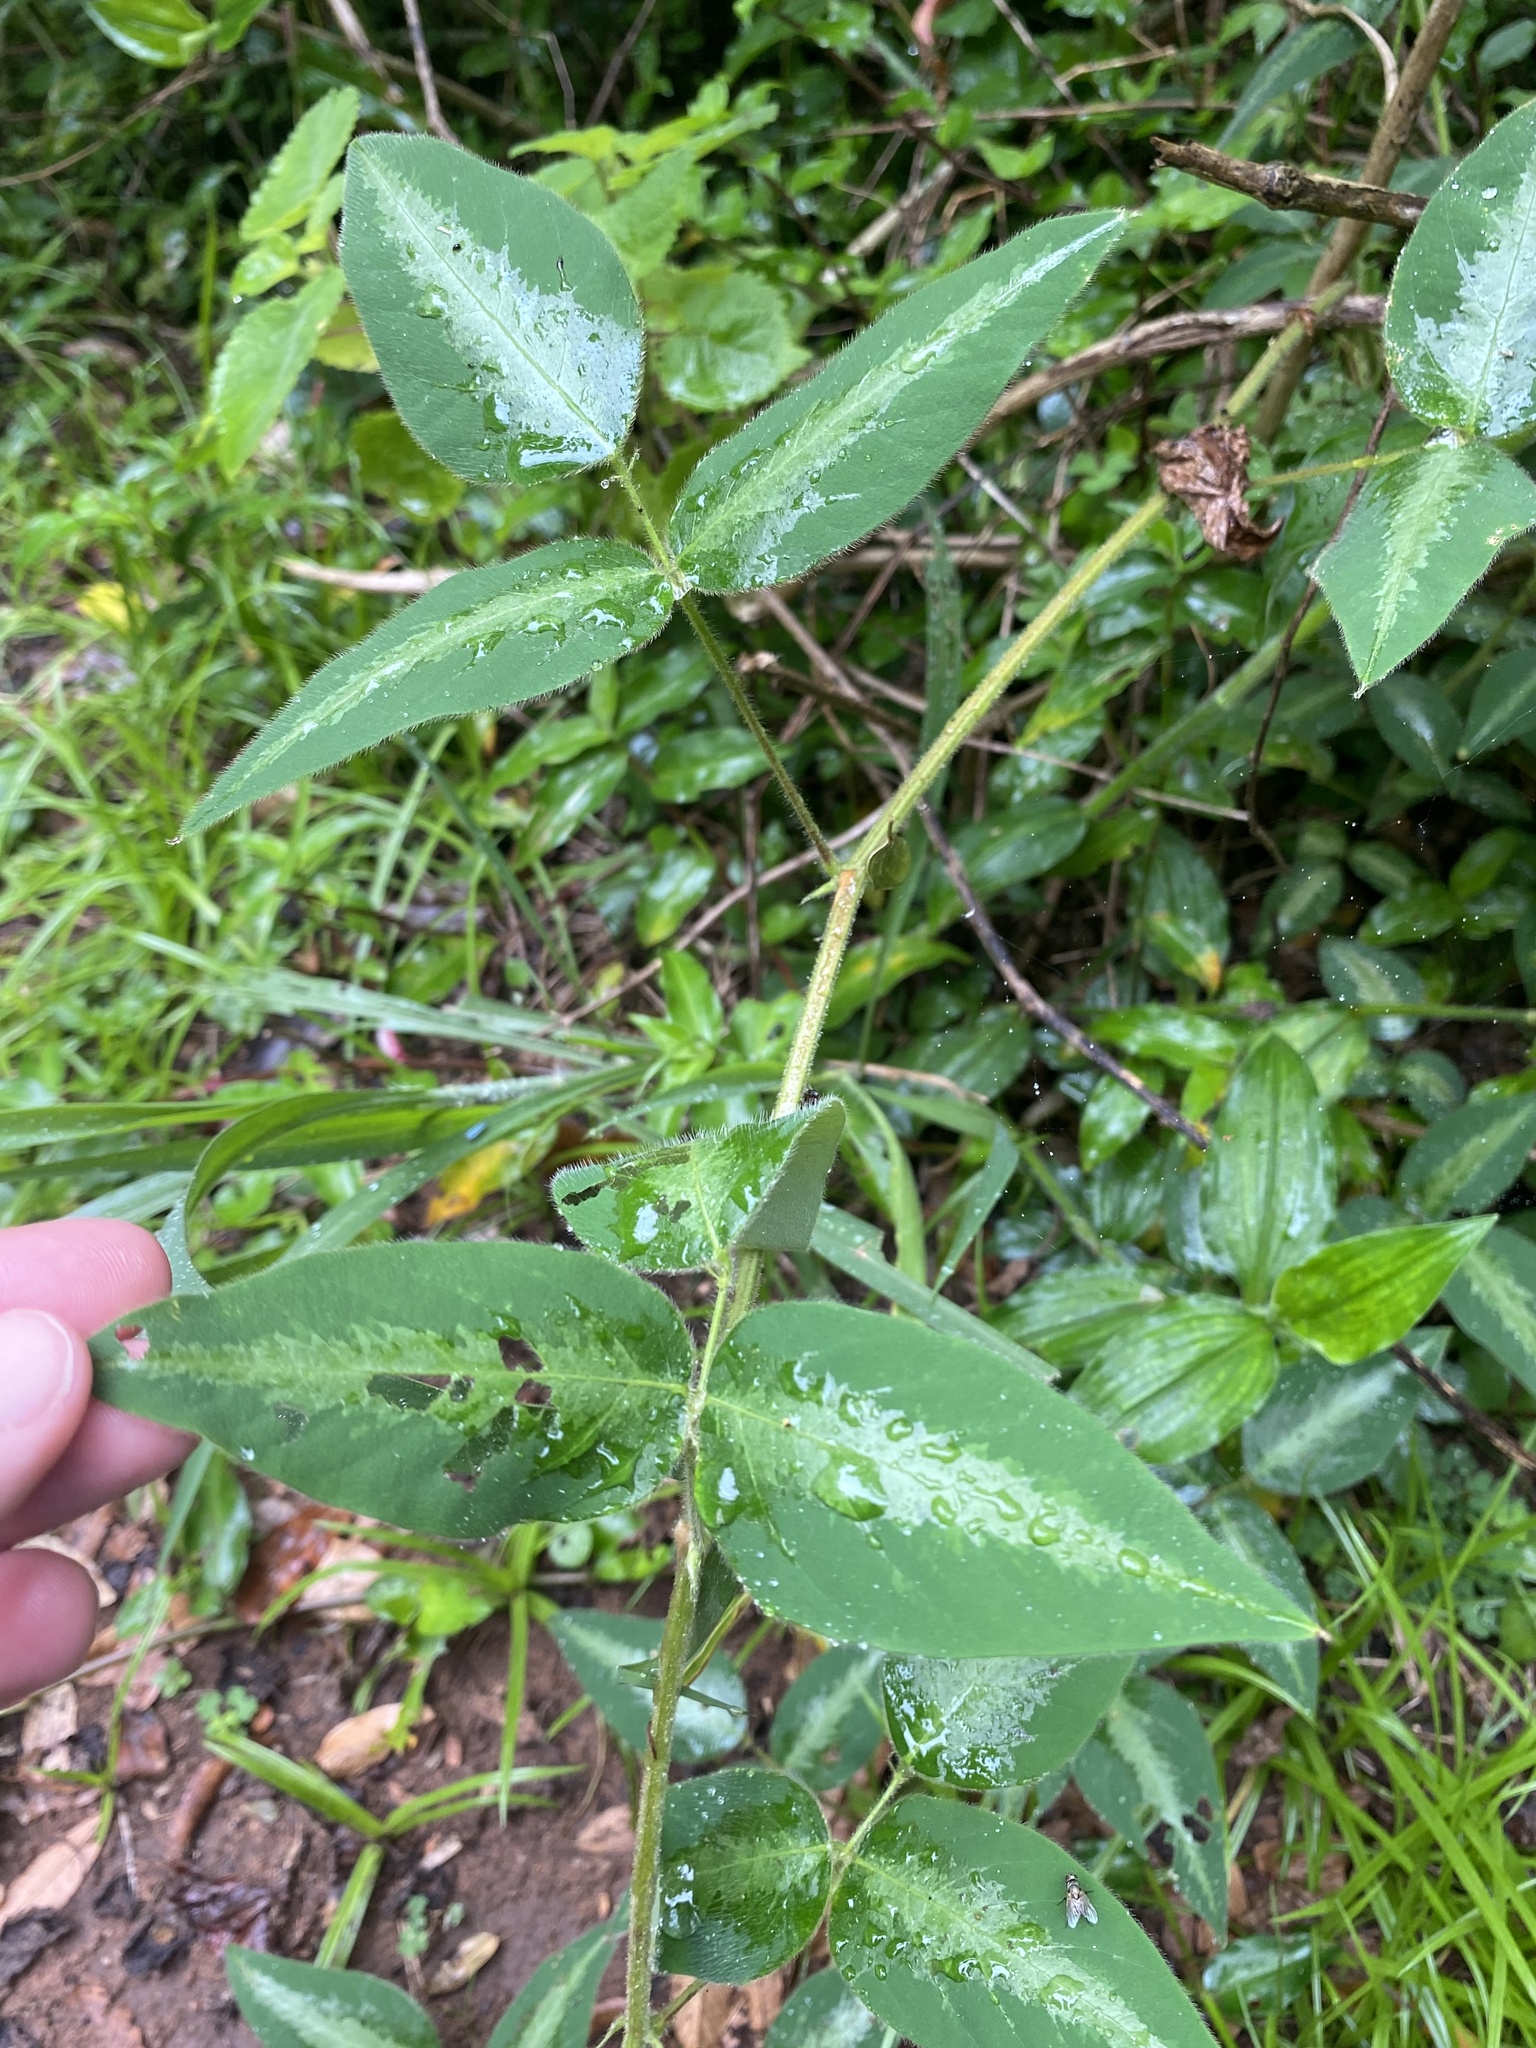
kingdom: Plantae
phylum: Tracheophyta
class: Magnoliopsida
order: Fabales
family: Fabaceae
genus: Desmodium
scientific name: Desmodium uncinatum
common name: Silverleaf desmodium
